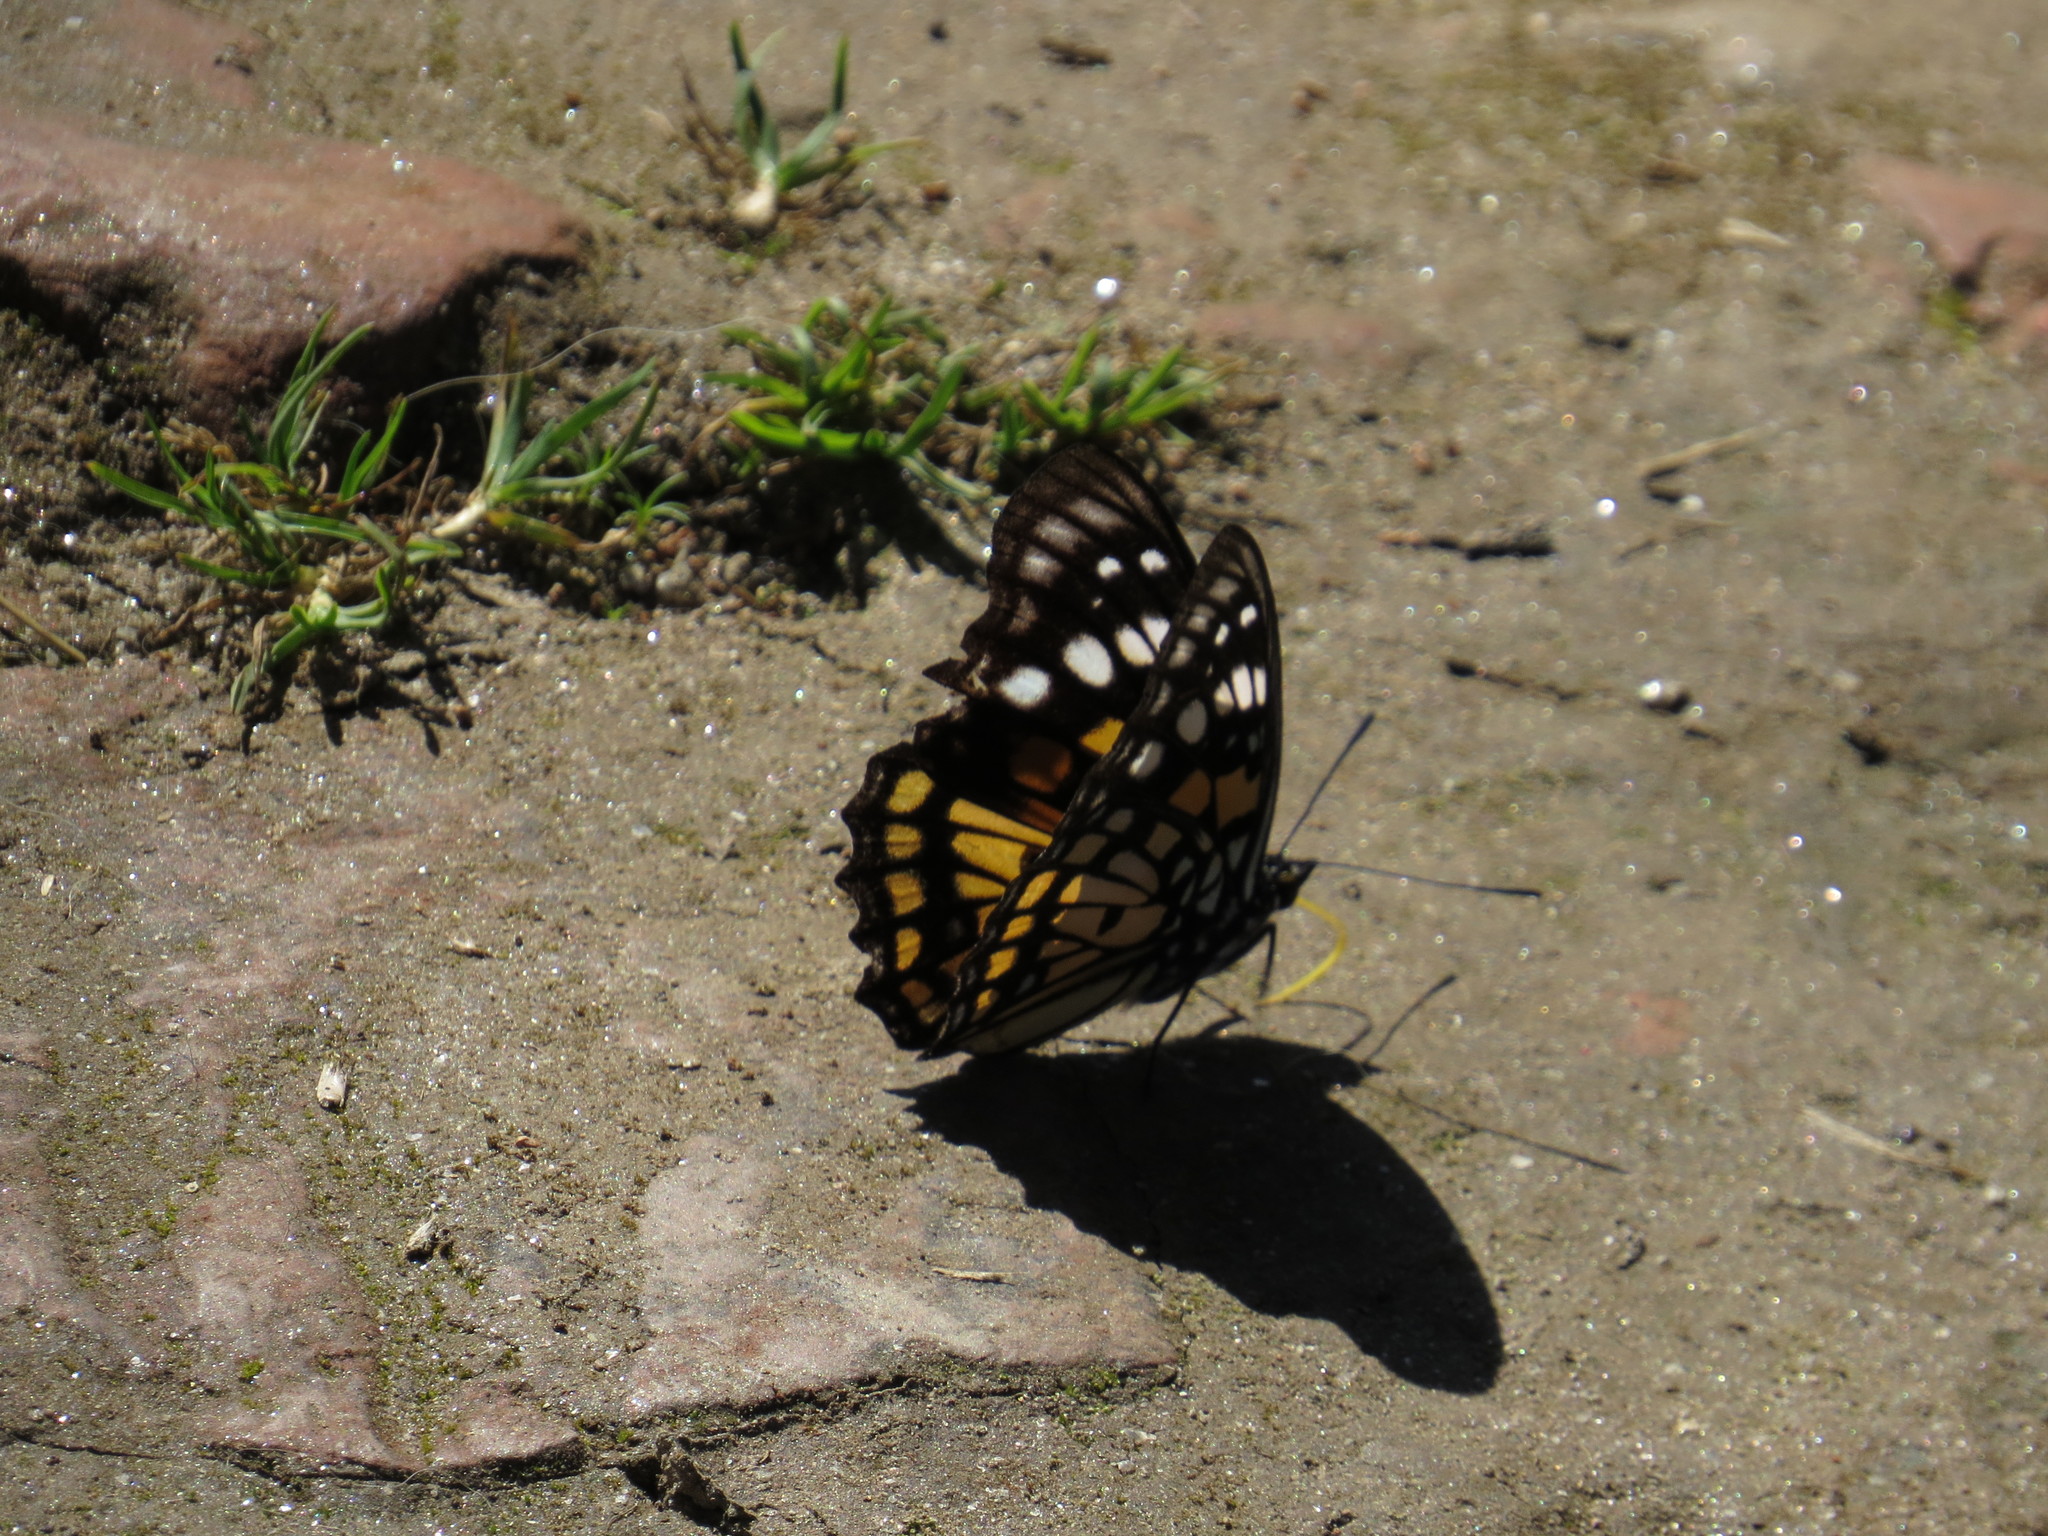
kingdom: Animalia
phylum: Arthropoda
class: Insecta
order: Lepidoptera
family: Nymphalidae
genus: Sephisa
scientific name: Sephisa chandra
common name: Eastern courtier
